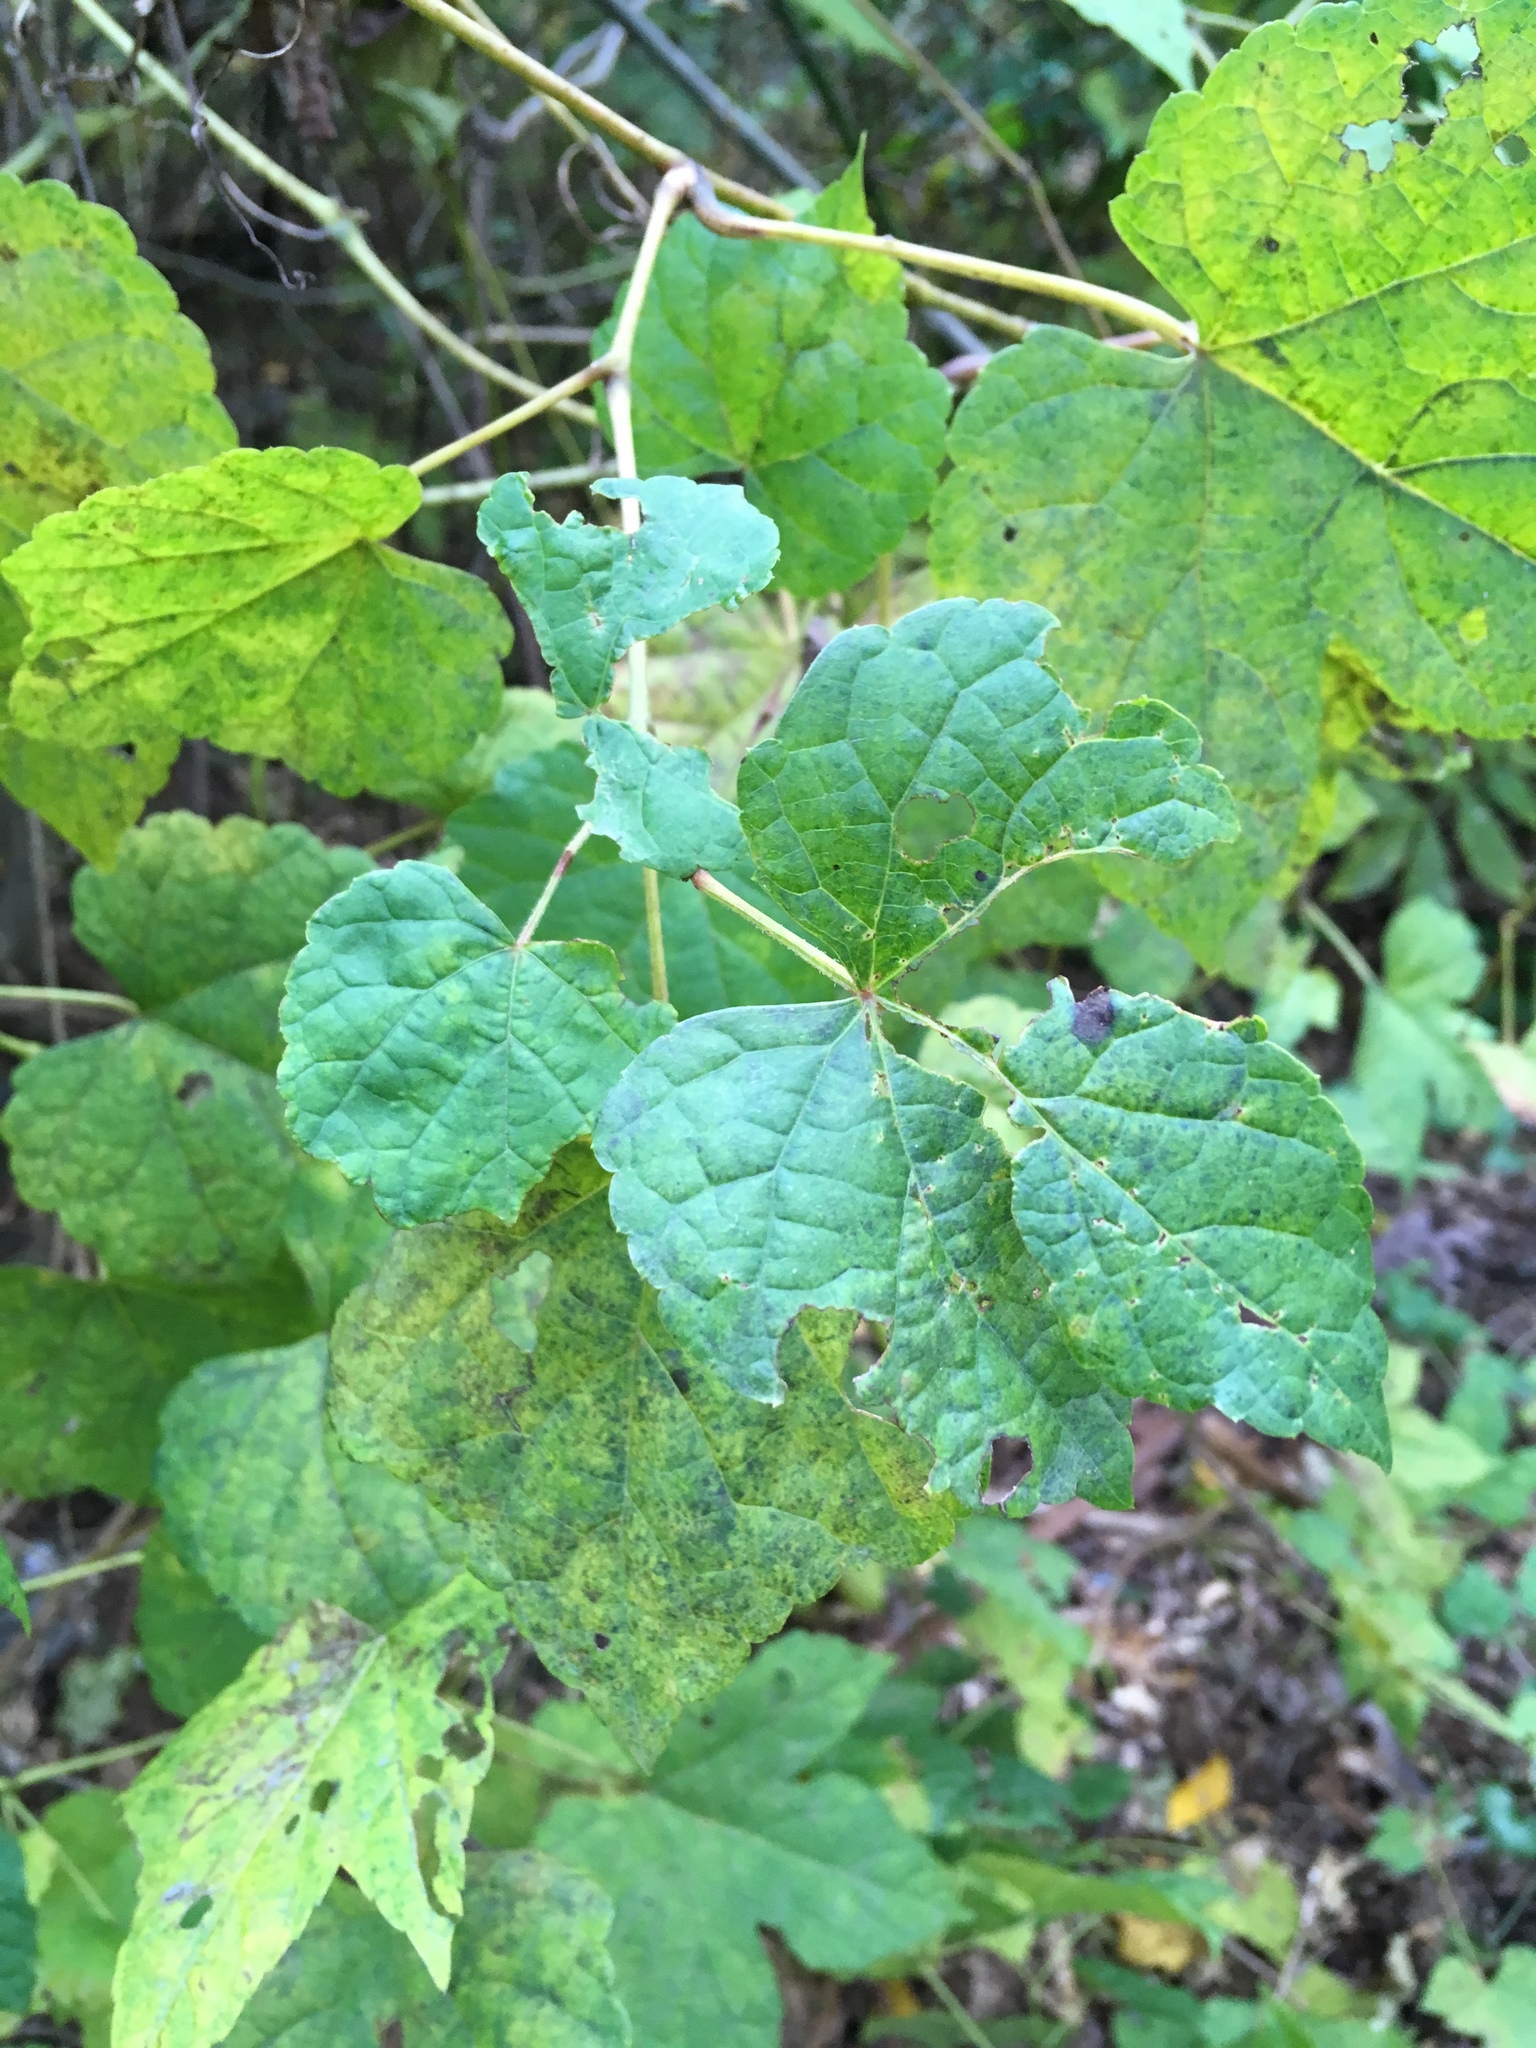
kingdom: Plantae
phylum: Tracheophyta
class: Magnoliopsida
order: Vitales
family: Vitaceae
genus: Ampelopsis
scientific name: Ampelopsis glandulosa
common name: Amur peppervine
